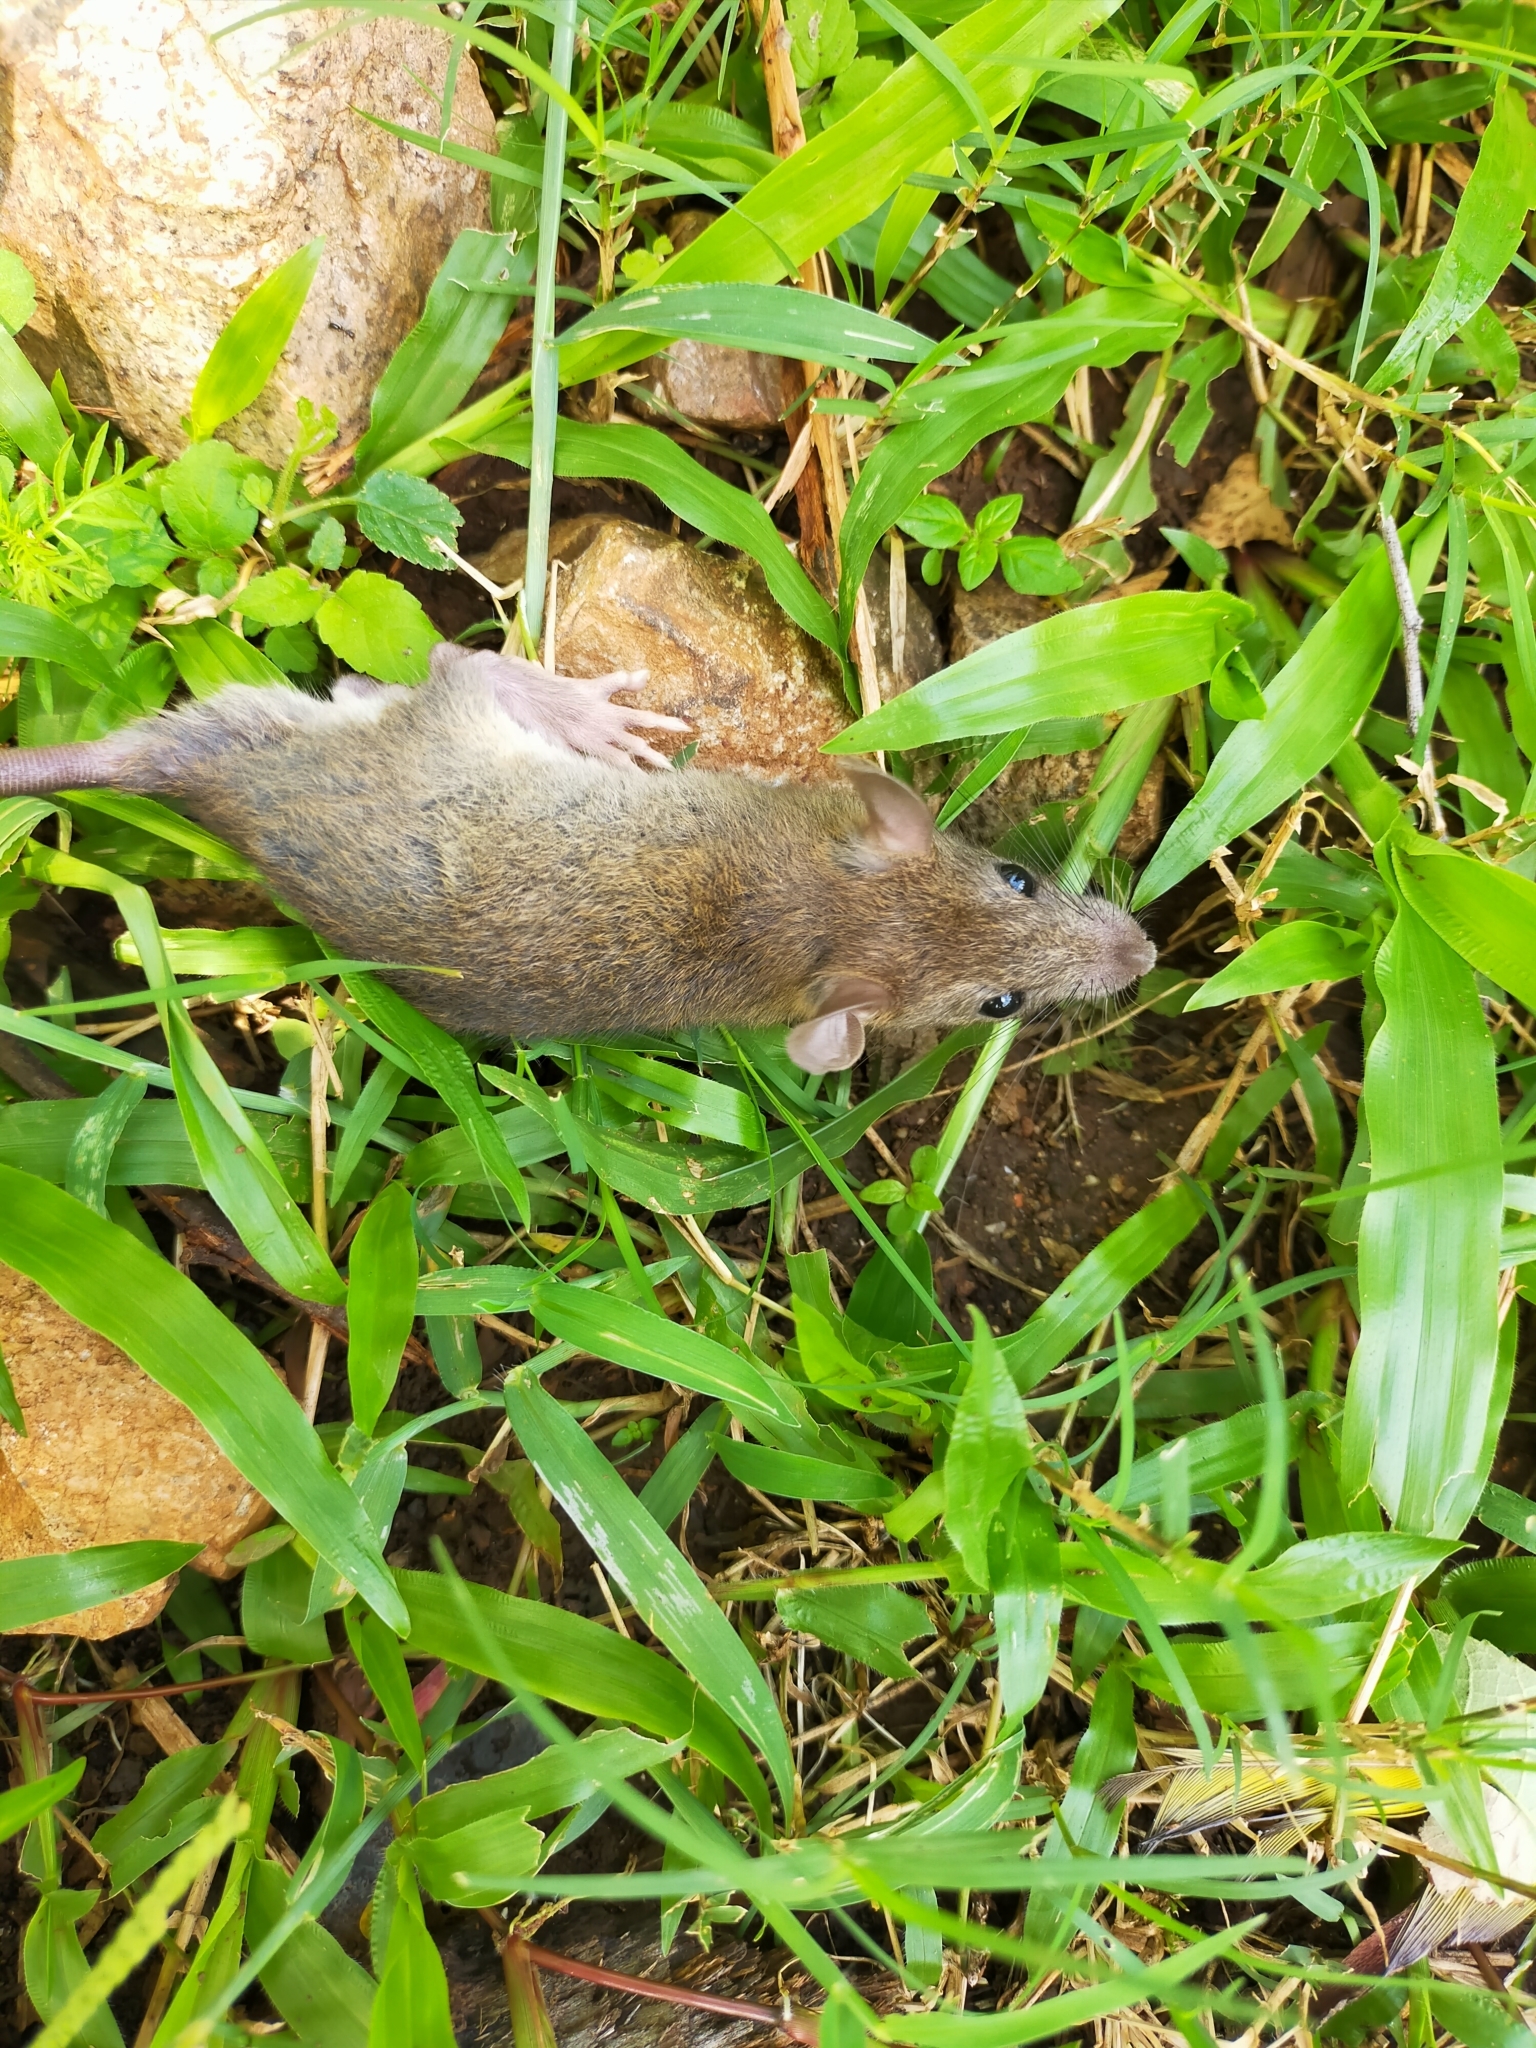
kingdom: Animalia
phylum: Chordata
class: Mammalia
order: Rodentia
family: Muridae
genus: Mus
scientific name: Mus musculus
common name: House mouse
